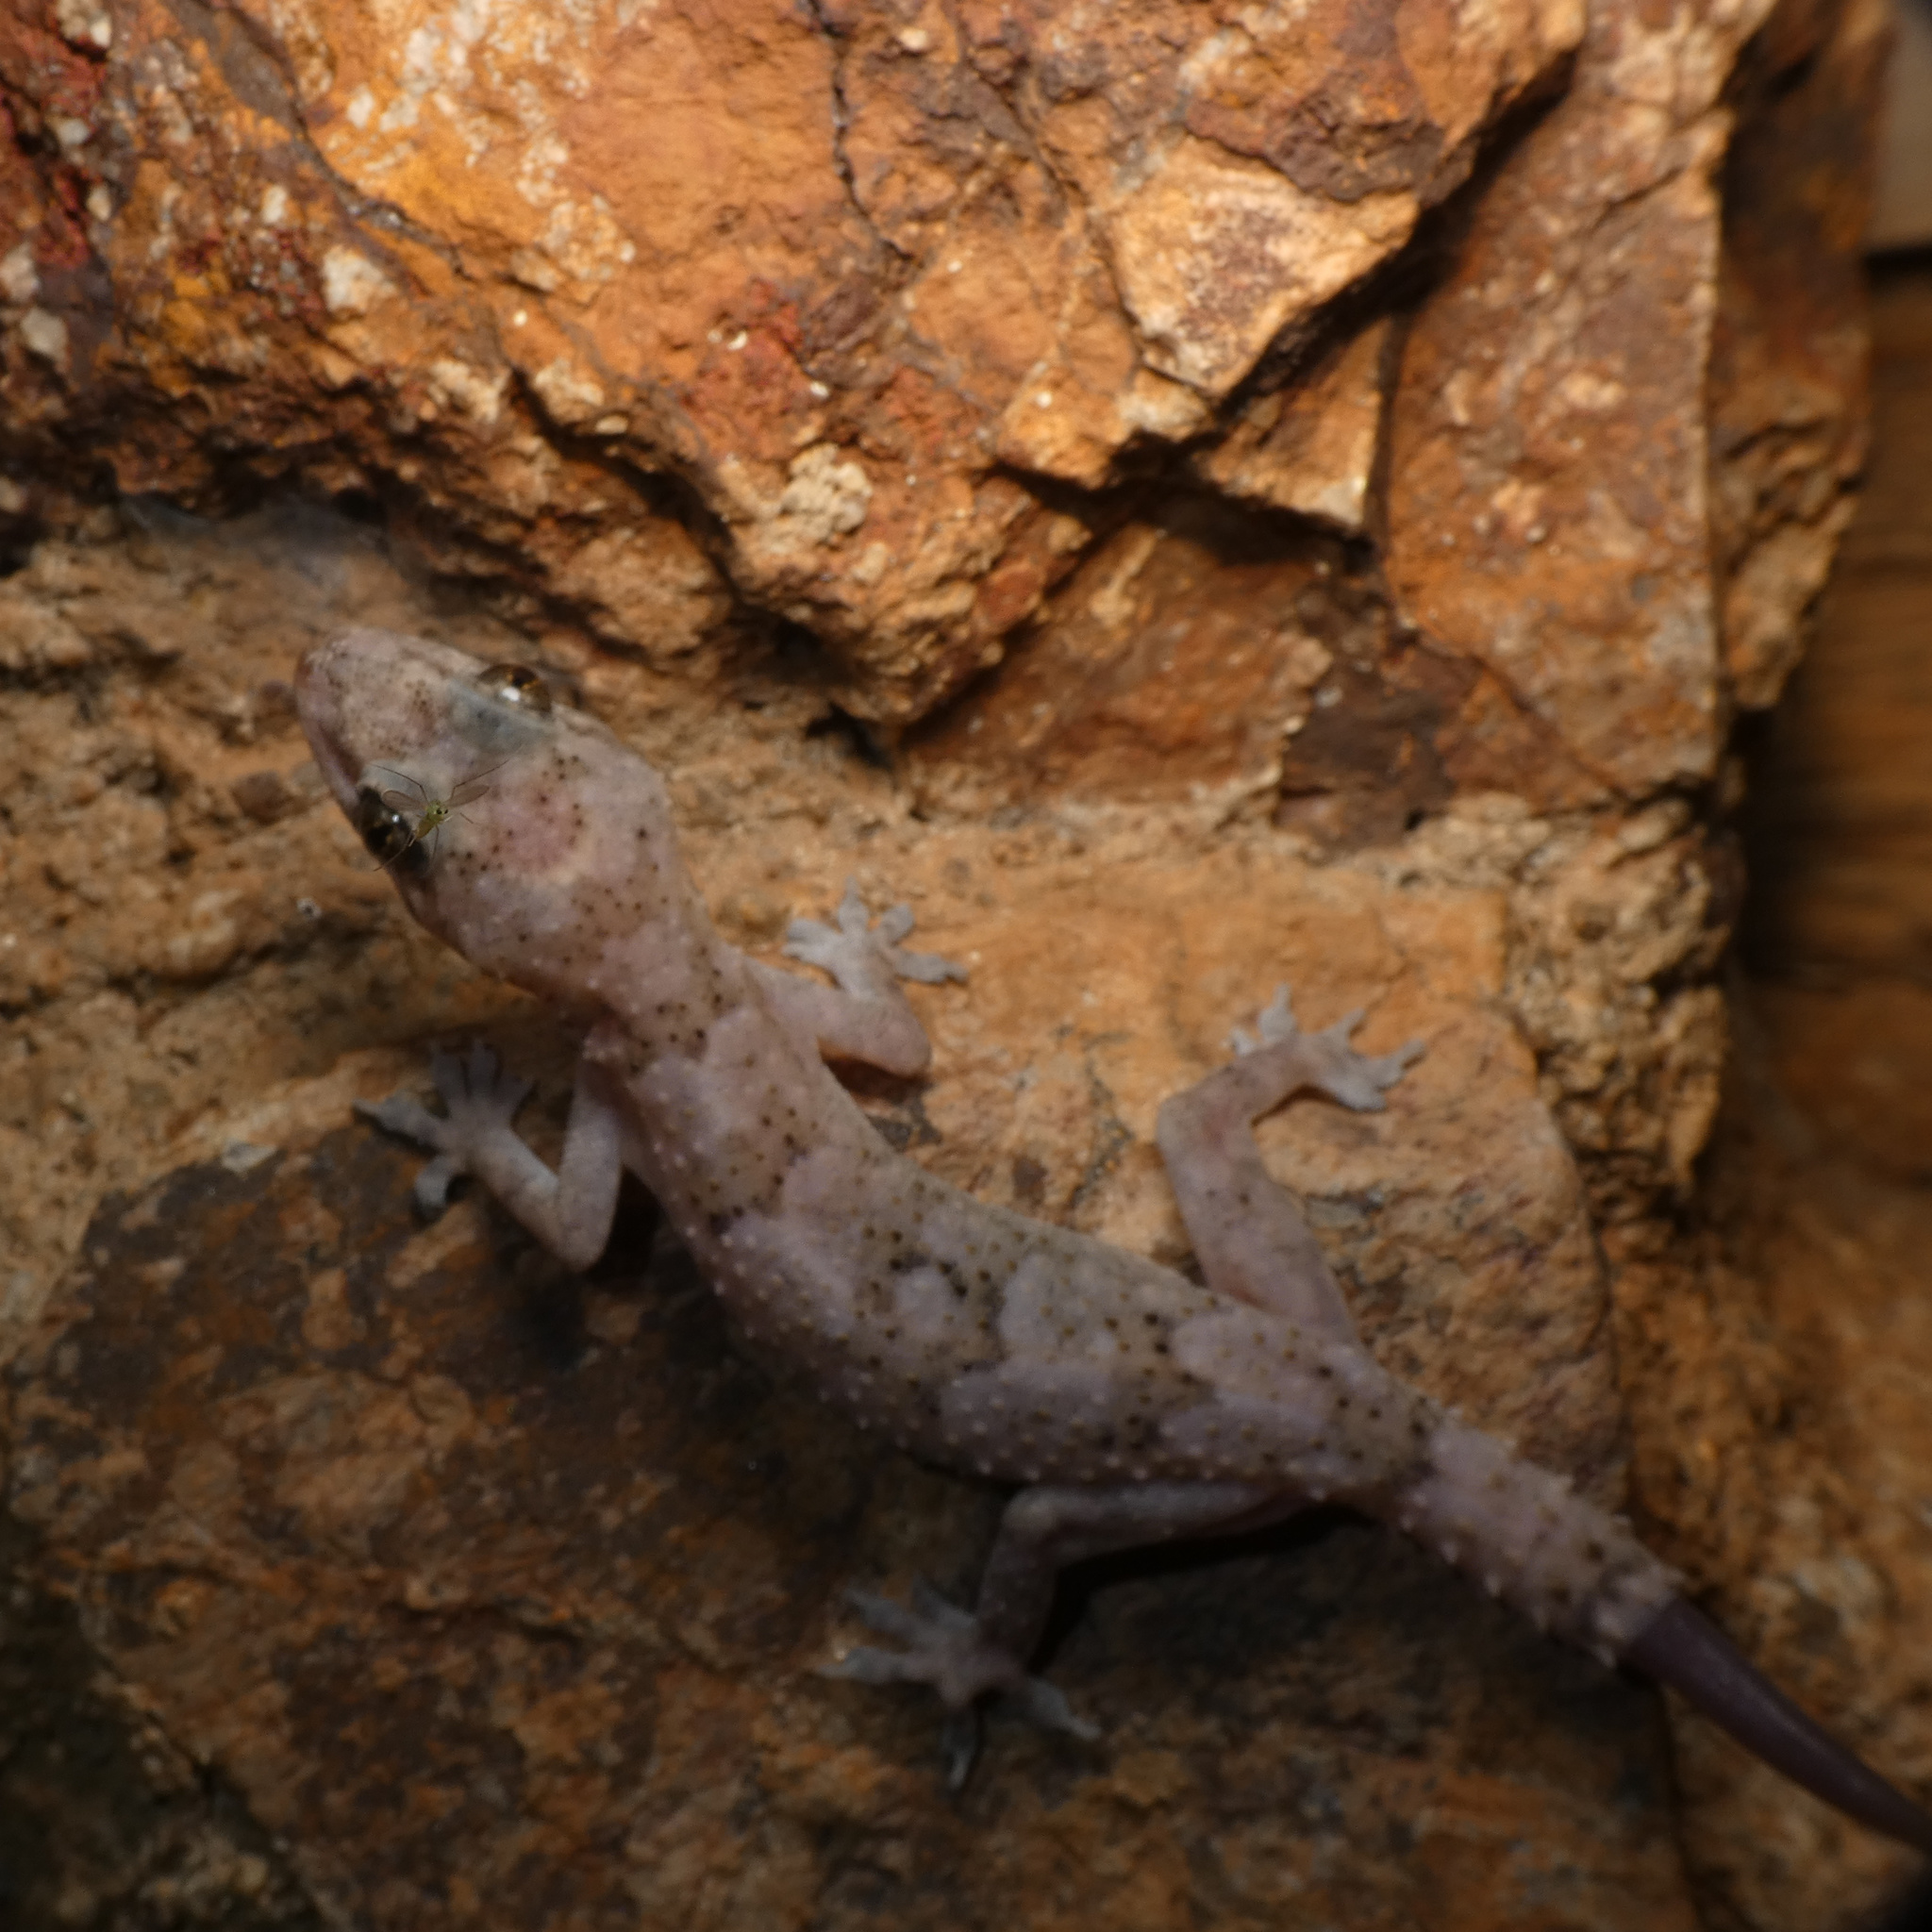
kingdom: Animalia
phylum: Chordata
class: Squamata
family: Gekkonidae
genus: Hemidactylus
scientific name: Hemidactylus mabouia
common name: House gecko
